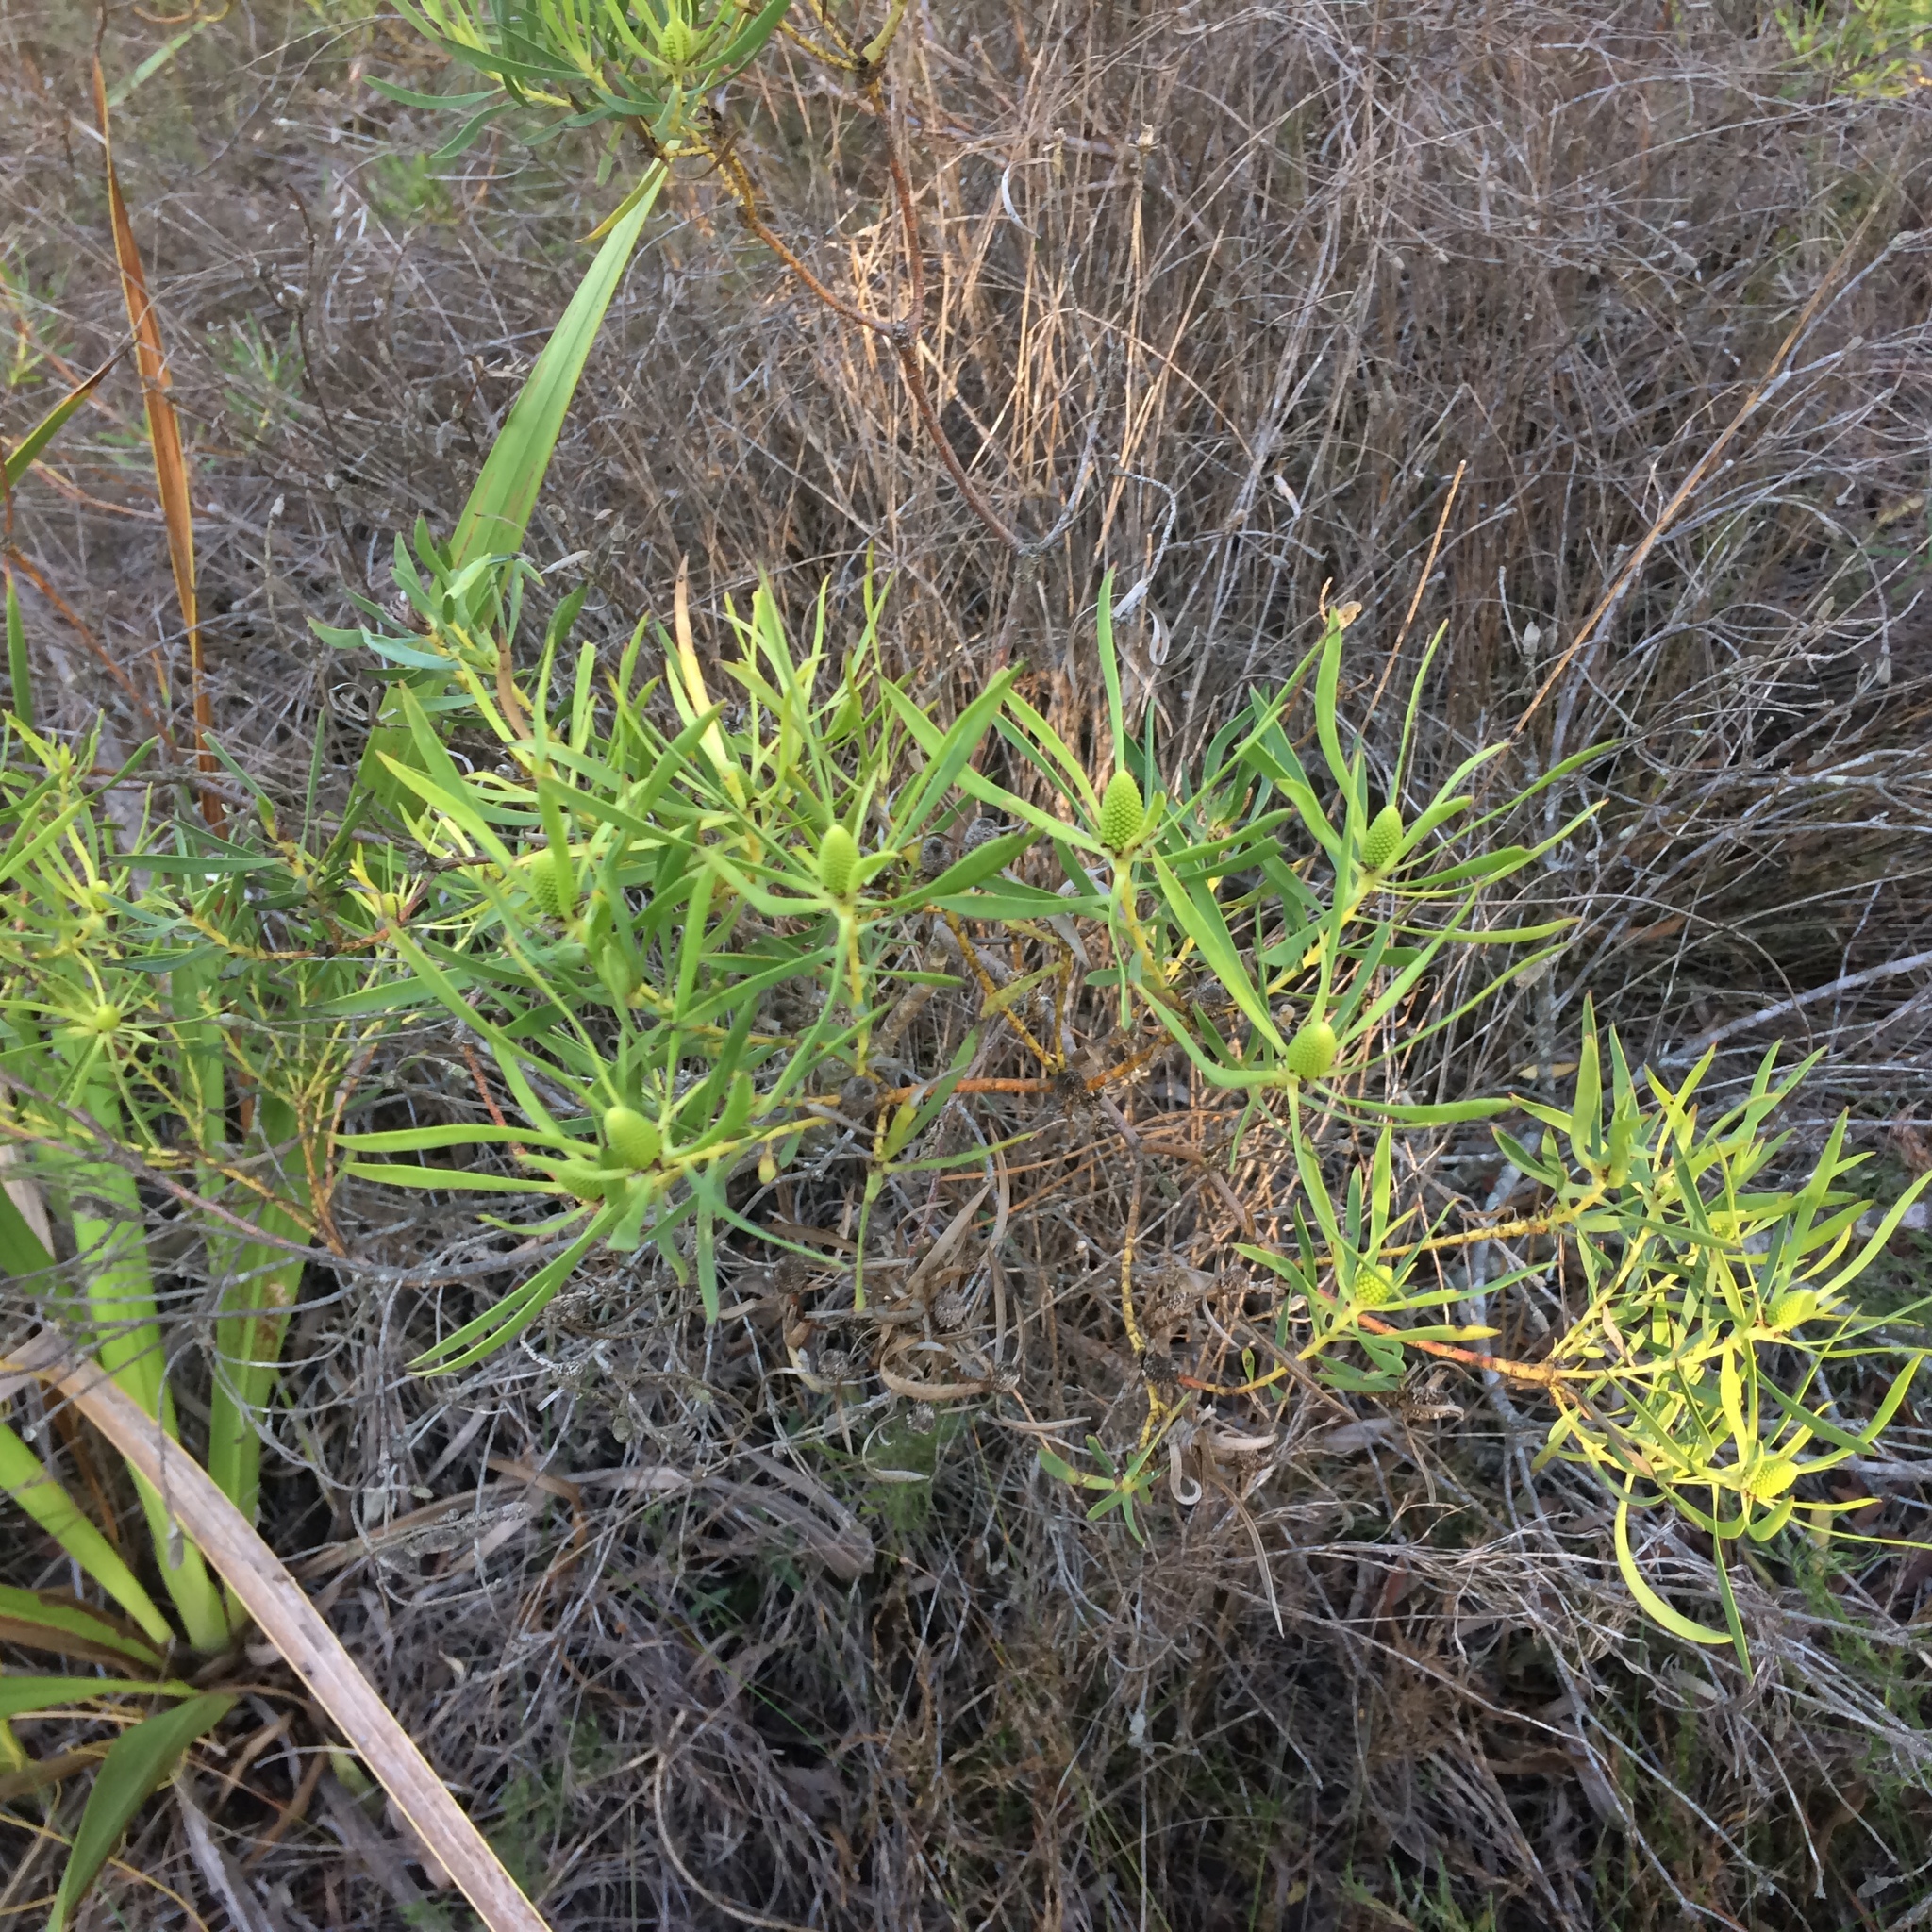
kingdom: Plantae
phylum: Tracheophyta
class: Magnoliopsida
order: Proteales
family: Proteaceae
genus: Leucadendron
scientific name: Leucadendron salignum
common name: Common sunshine conebush
